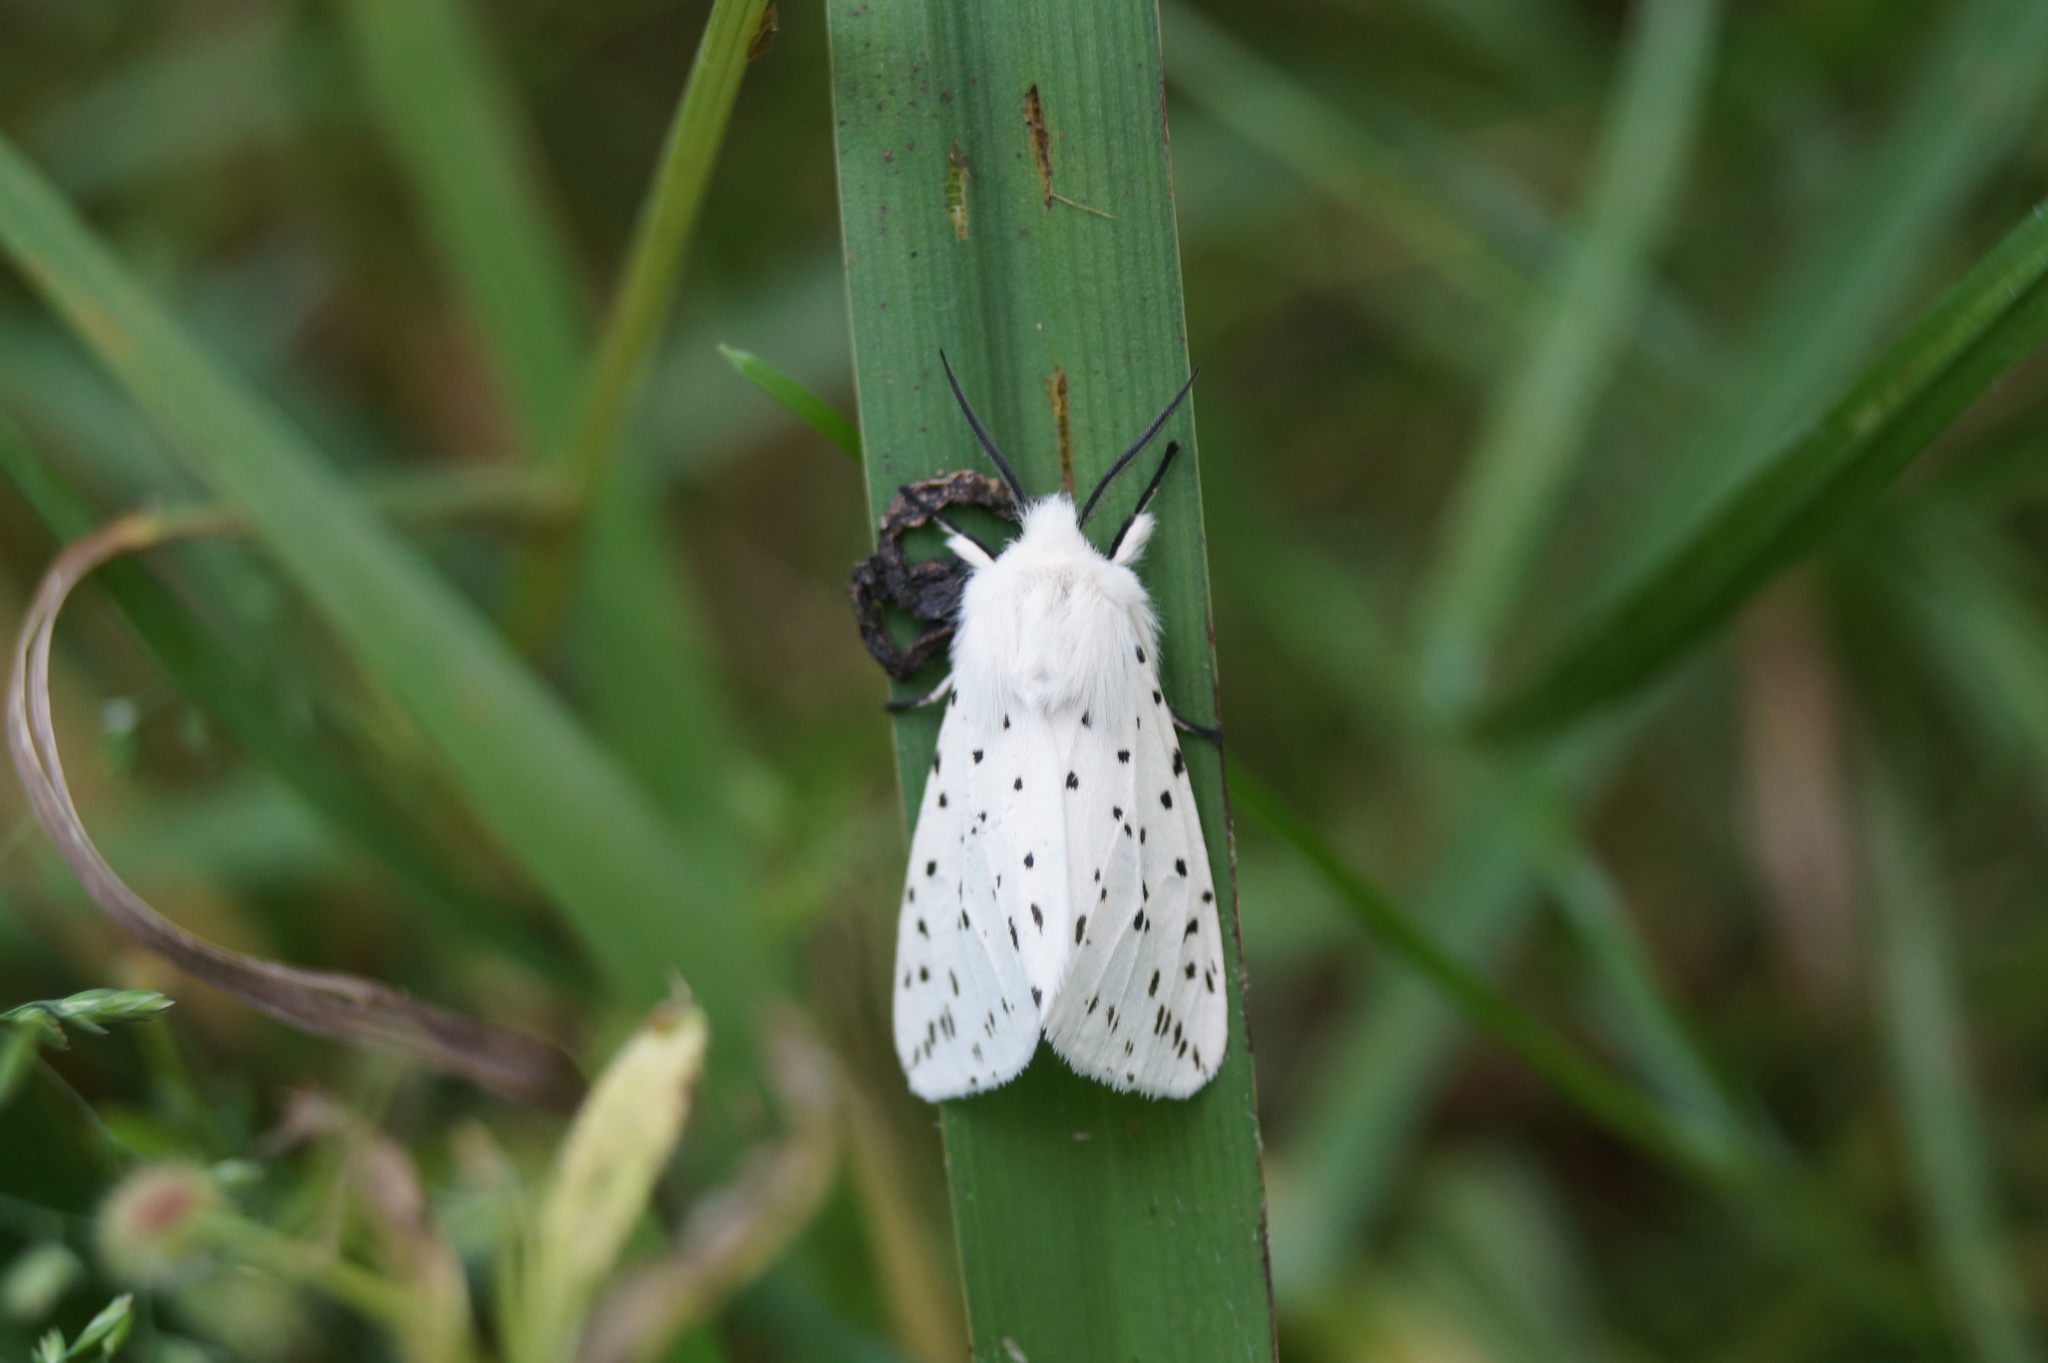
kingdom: Animalia
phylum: Arthropoda
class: Insecta
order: Lepidoptera
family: Erebidae
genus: Spilosoma
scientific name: Spilosoma lubricipeda
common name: White ermine
